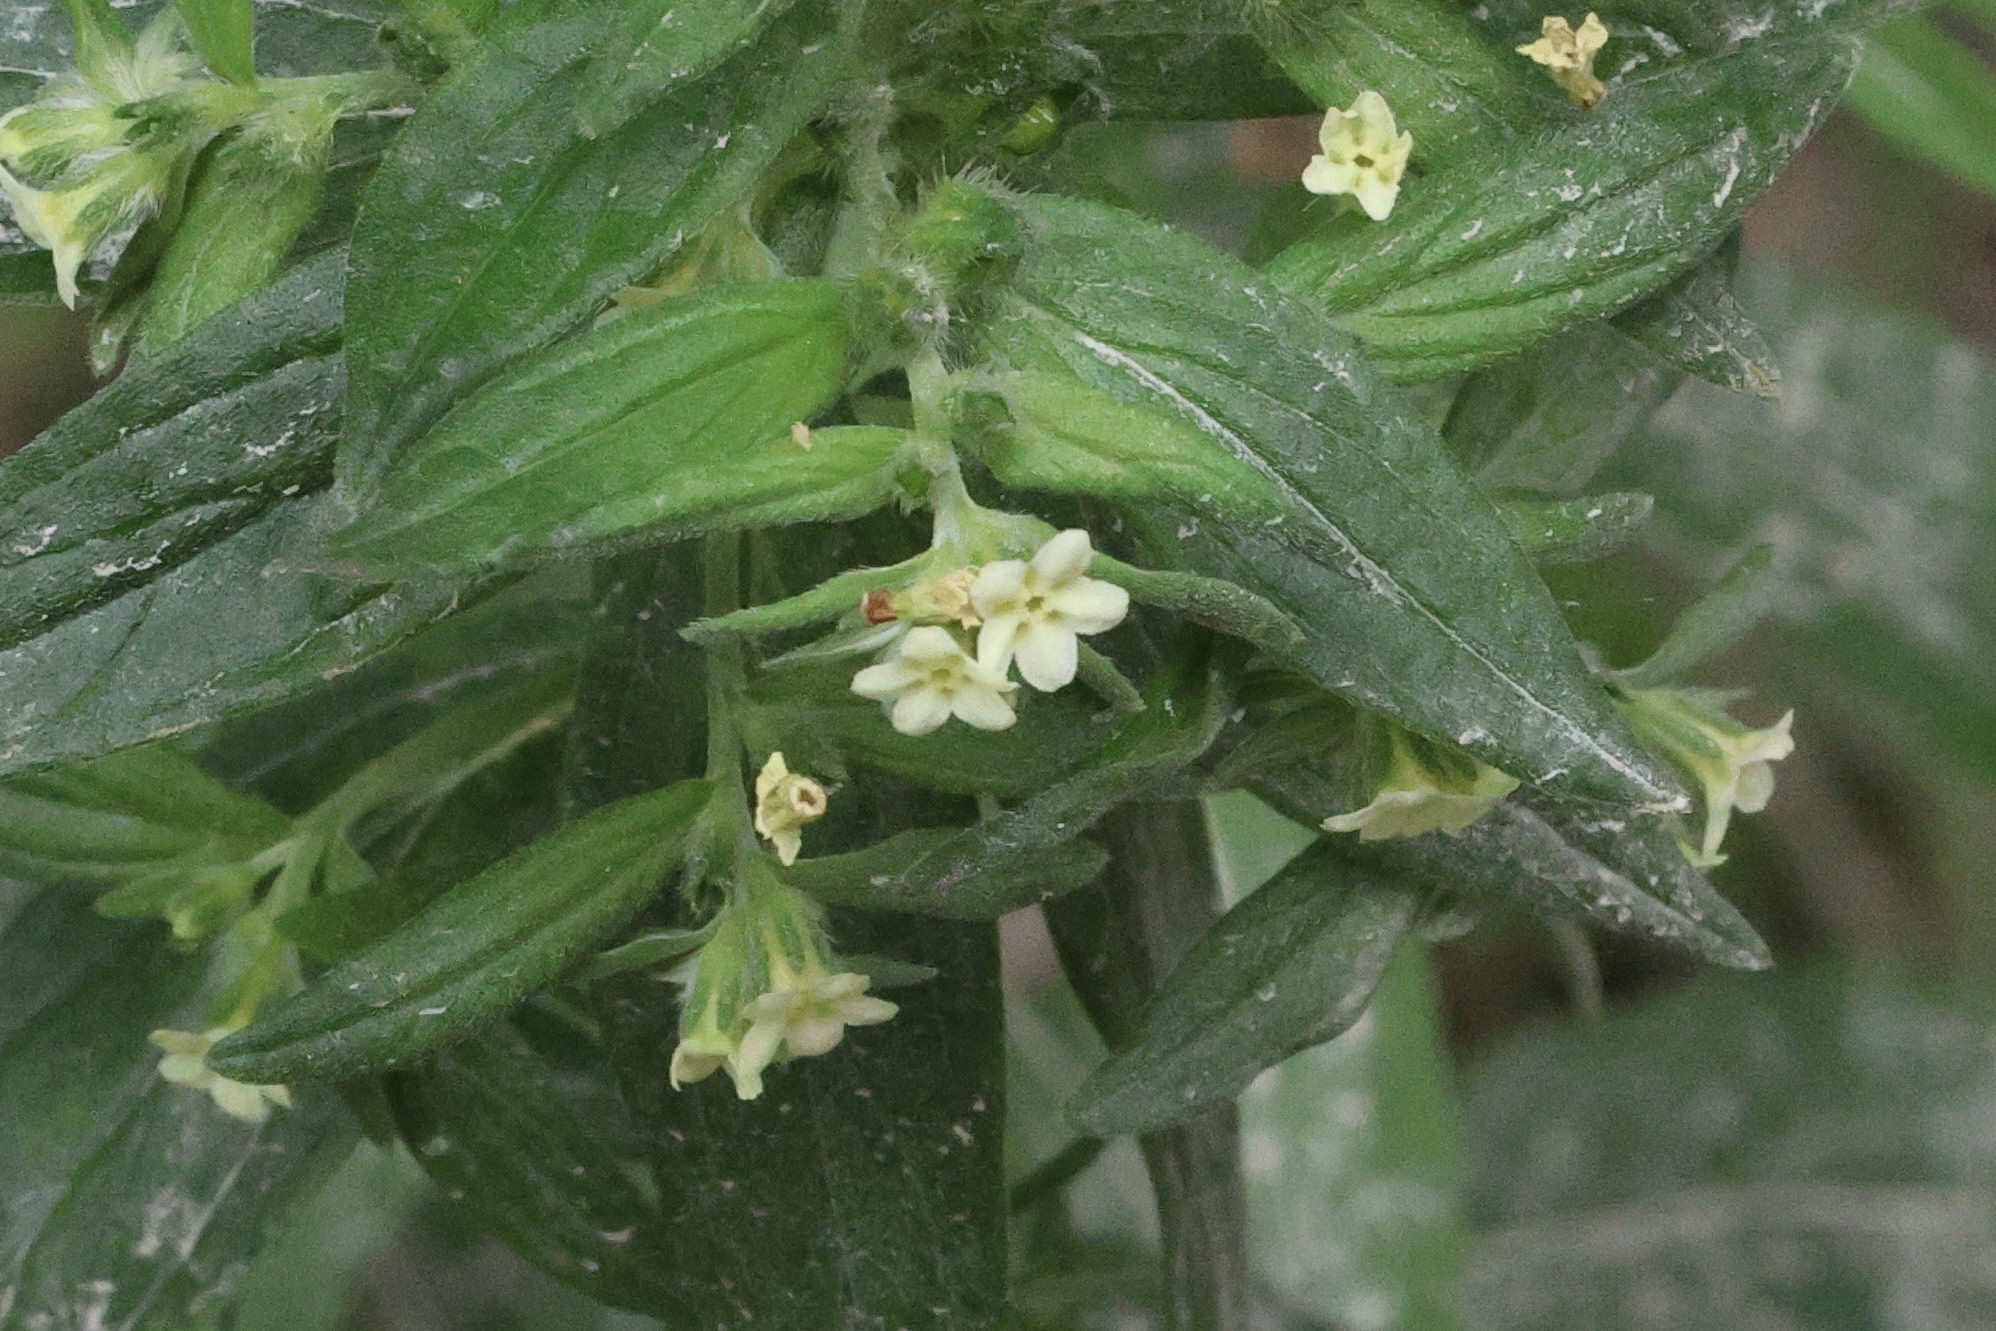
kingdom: Plantae
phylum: Tracheophyta
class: Magnoliopsida
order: Boraginales
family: Boraginaceae
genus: Lithospermum
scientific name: Lithospermum officinale
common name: Common gromwell
